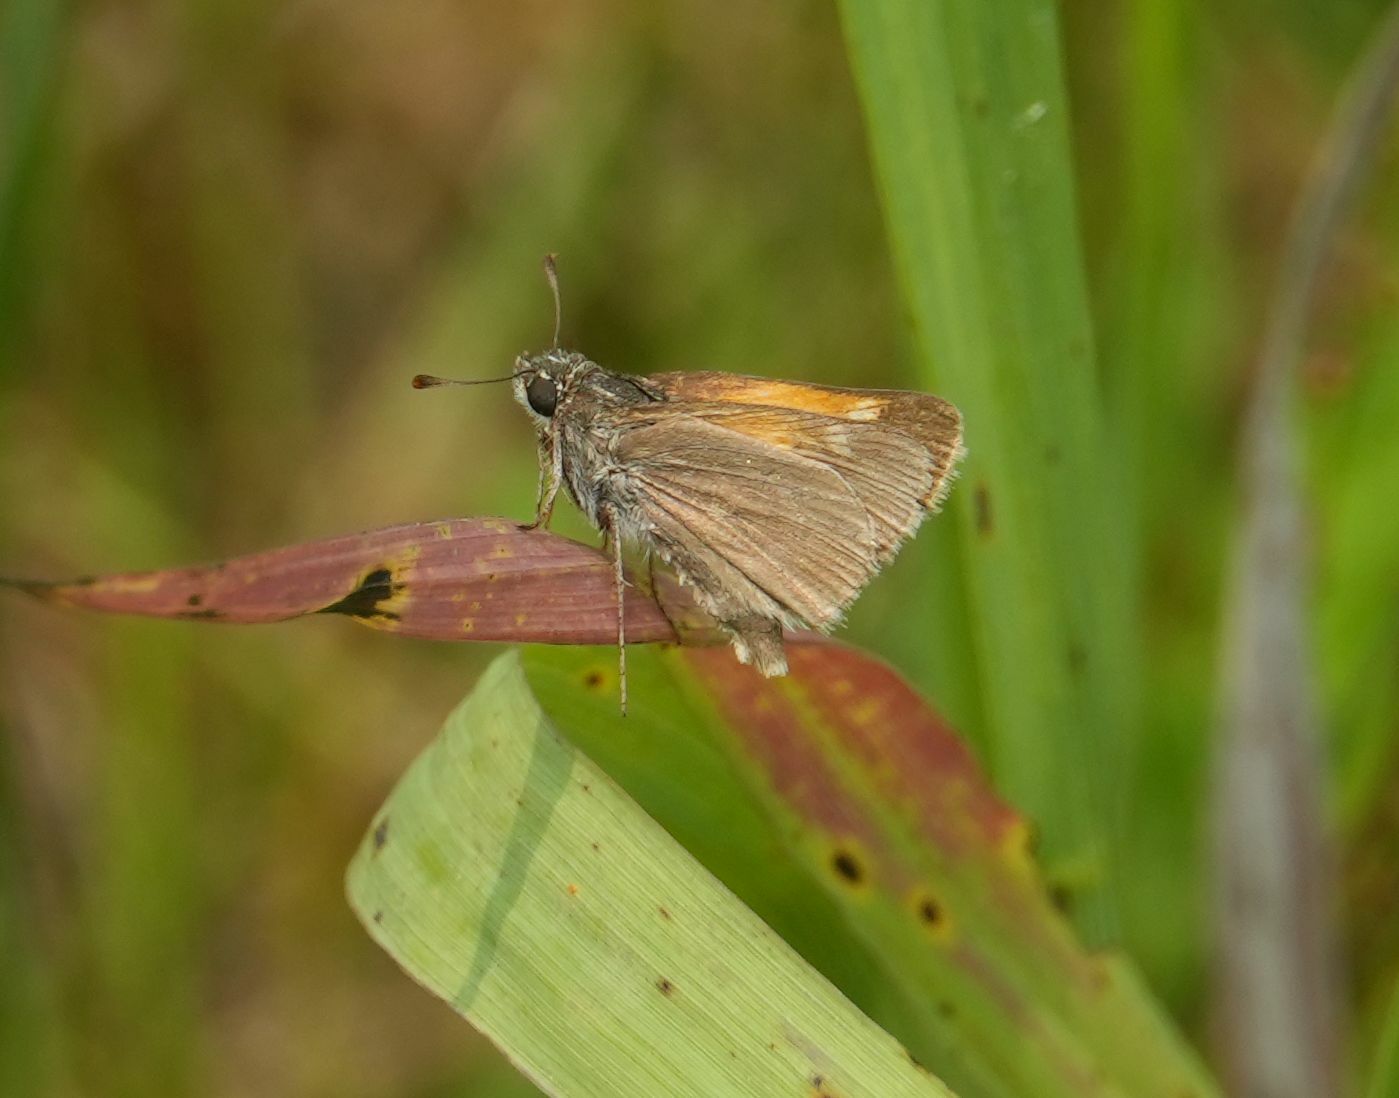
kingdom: Animalia
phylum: Arthropoda
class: Insecta
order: Lepidoptera
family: Hesperiidae
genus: Polites
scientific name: Polites themistocles
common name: Tawny-edged skipper
